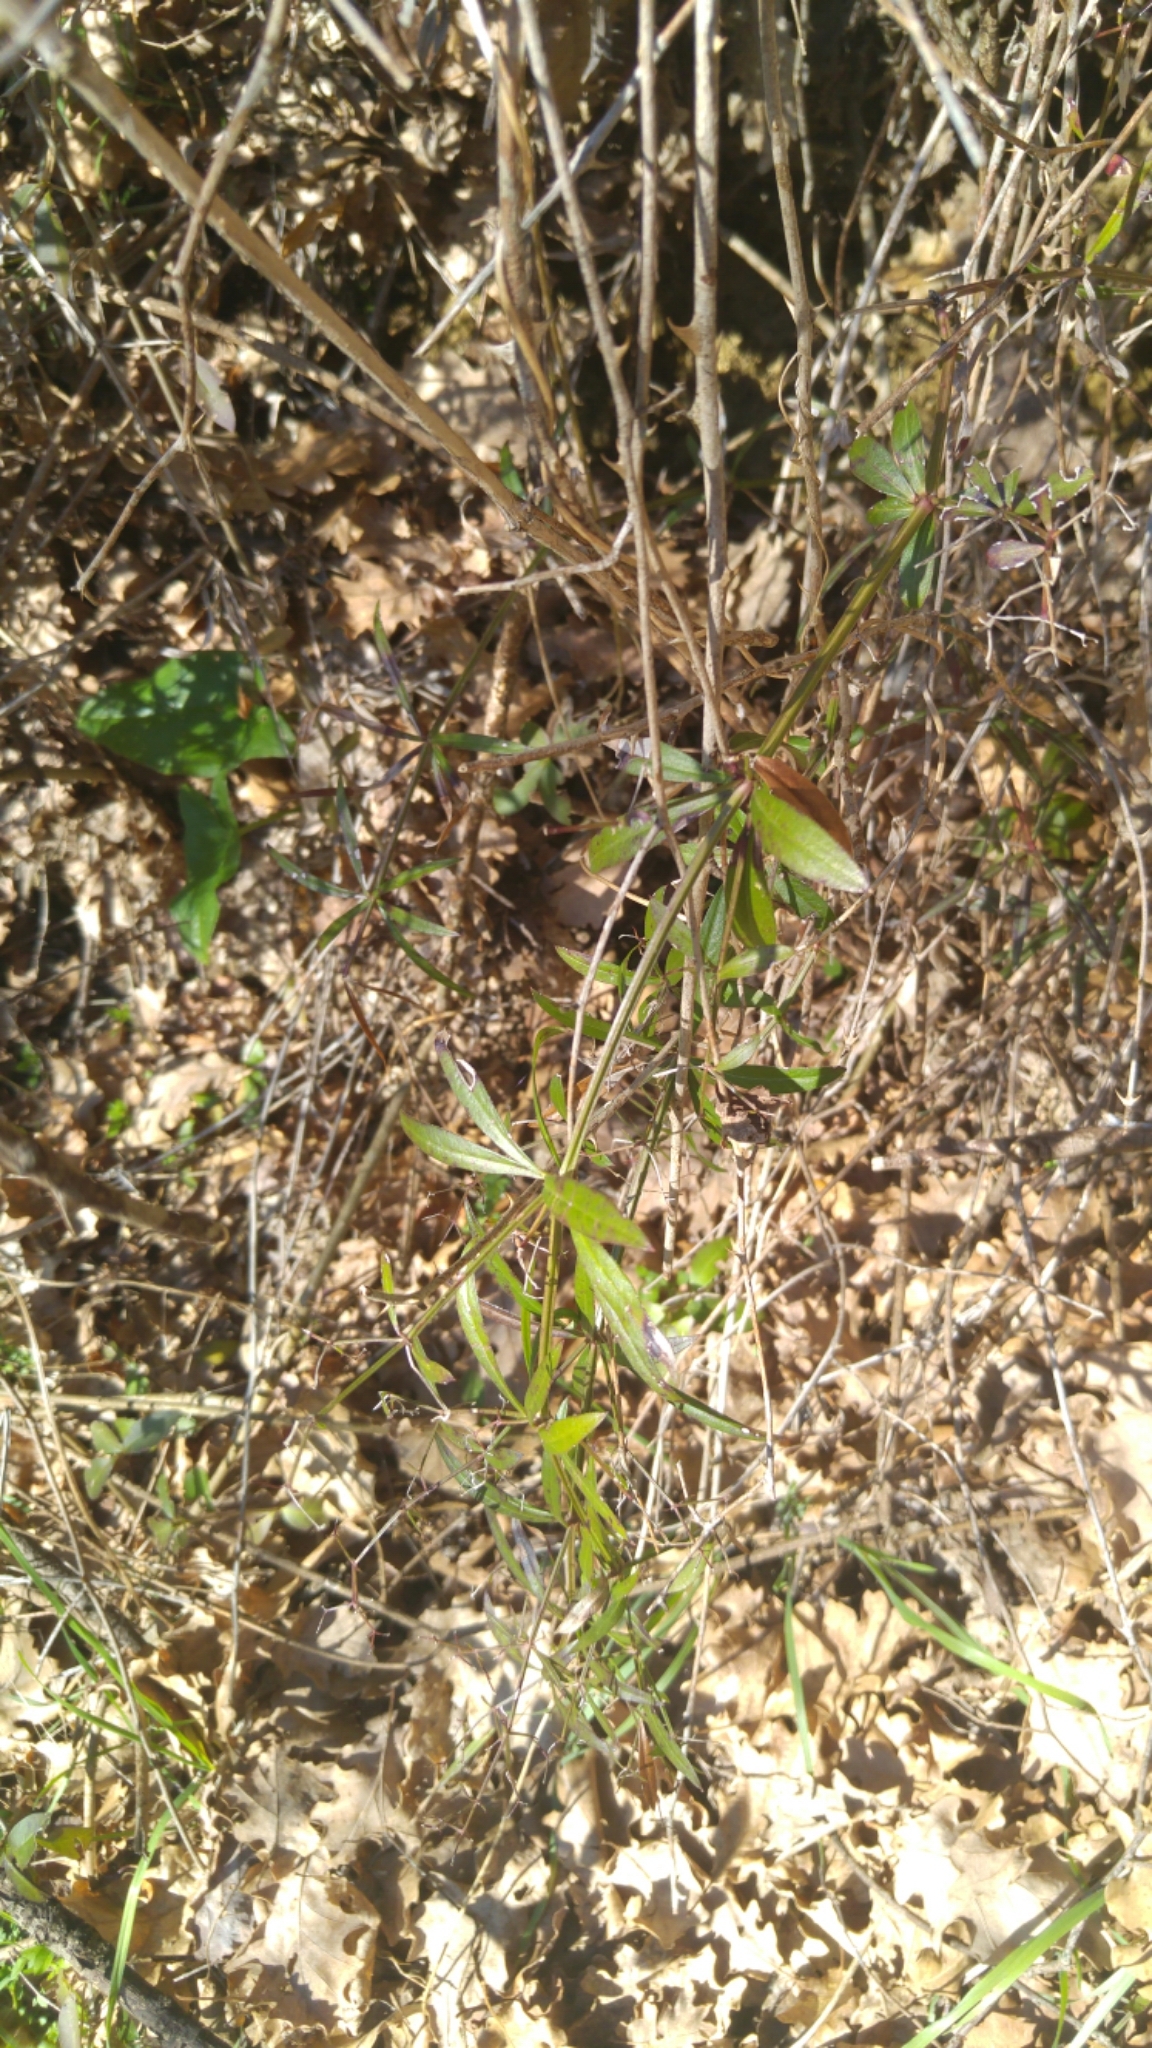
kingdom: Plantae
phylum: Tracheophyta
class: Magnoliopsida
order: Gentianales
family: Rubiaceae
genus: Rubia
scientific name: Rubia peregrina
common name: Wild madder
